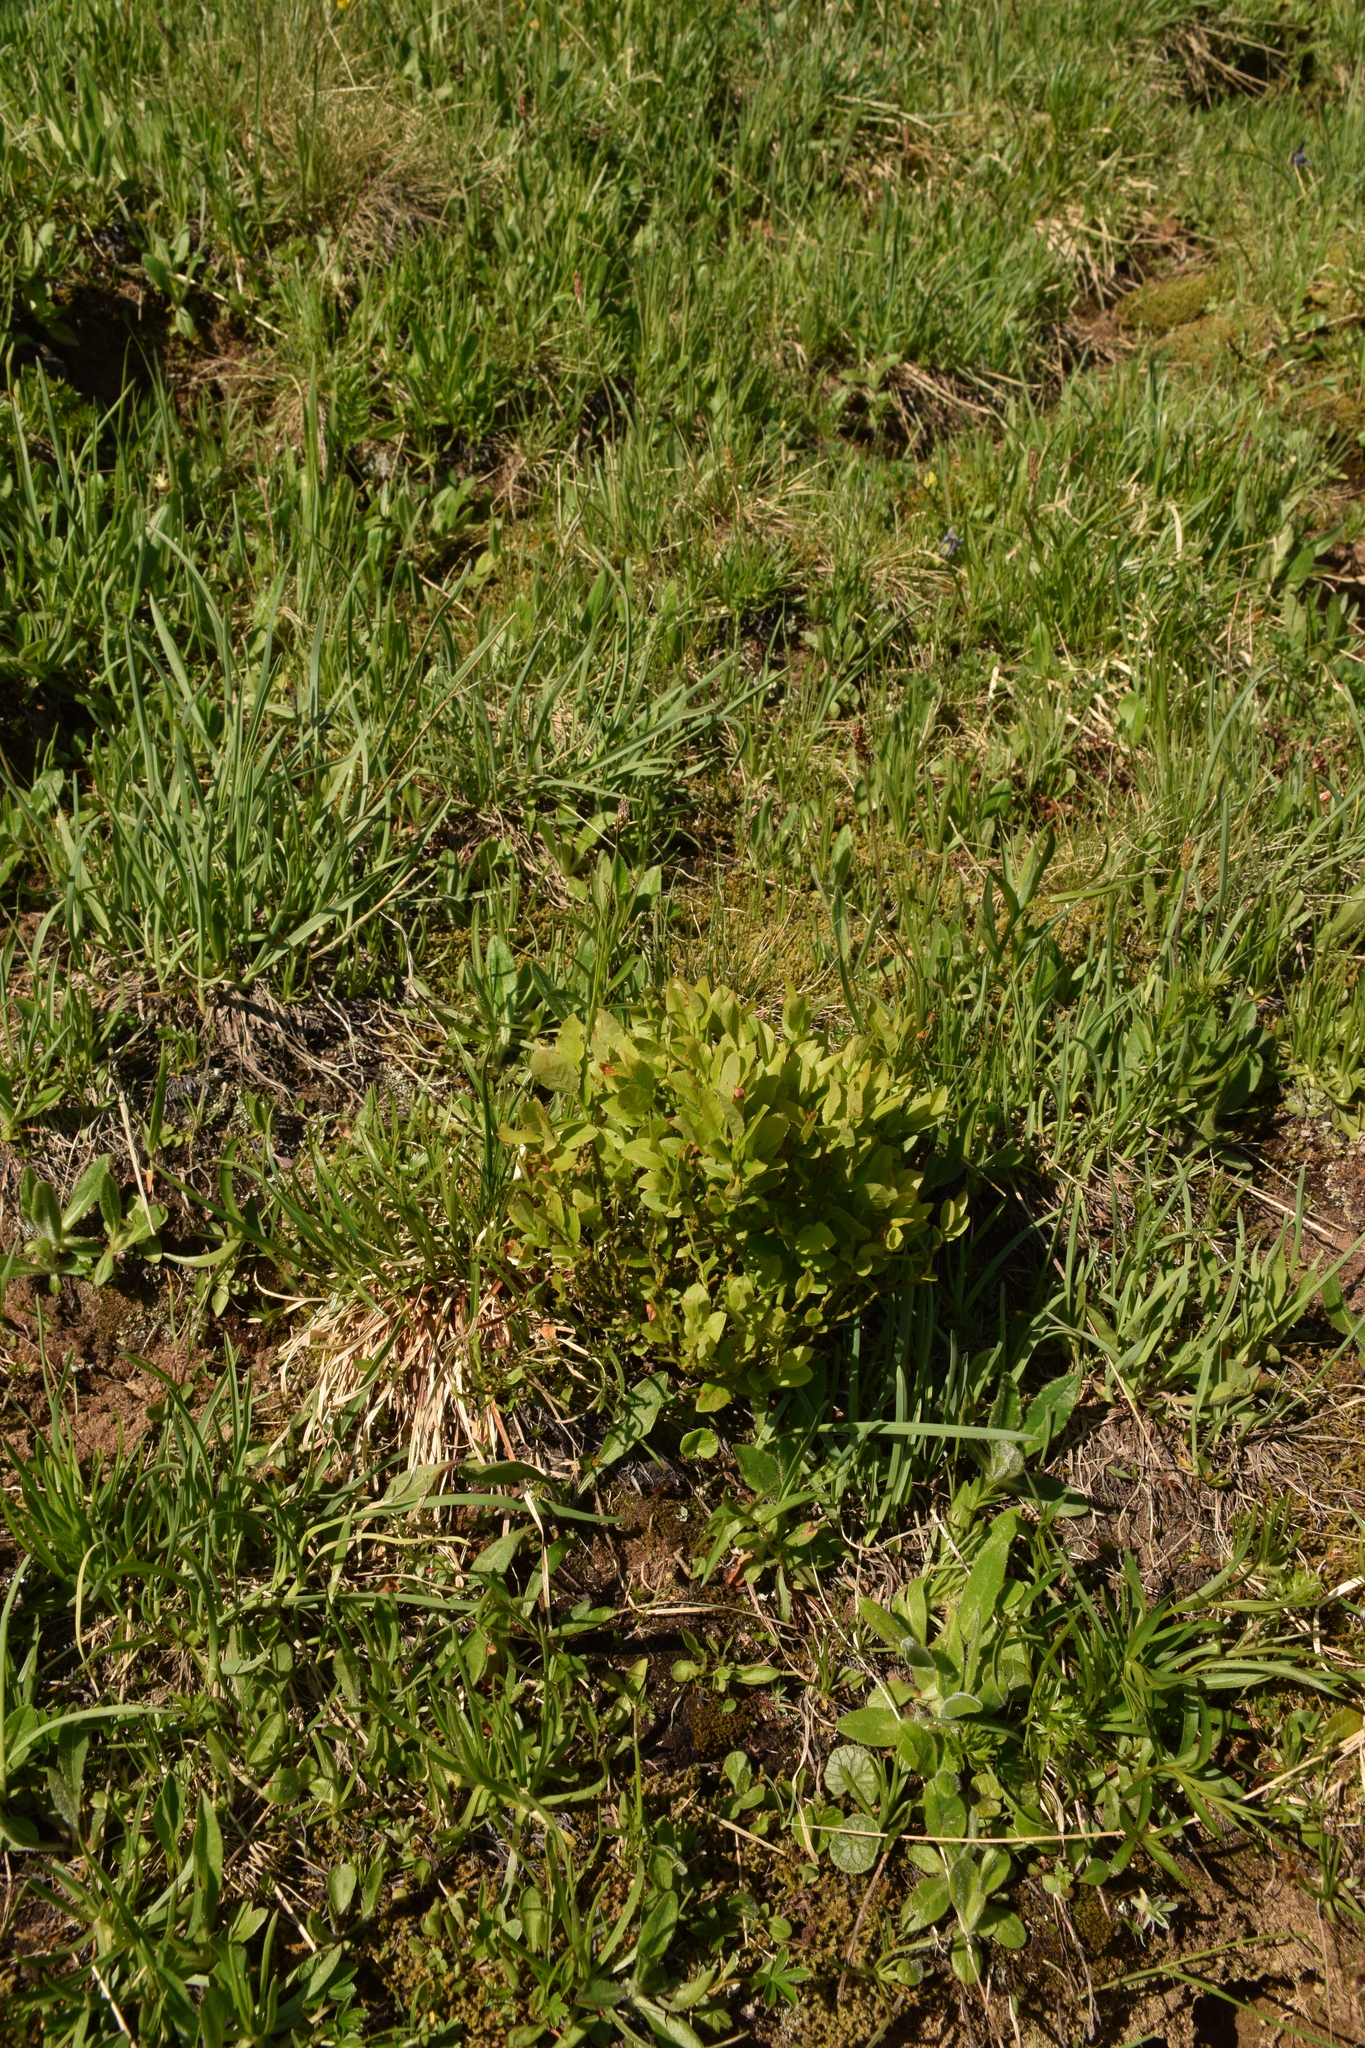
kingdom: Plantae
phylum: Tracheophyta
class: Magnoliopsida
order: Ericales
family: Ericaceae
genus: Vaccinium
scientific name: Vaccinium myrtillus
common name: Bilberry
